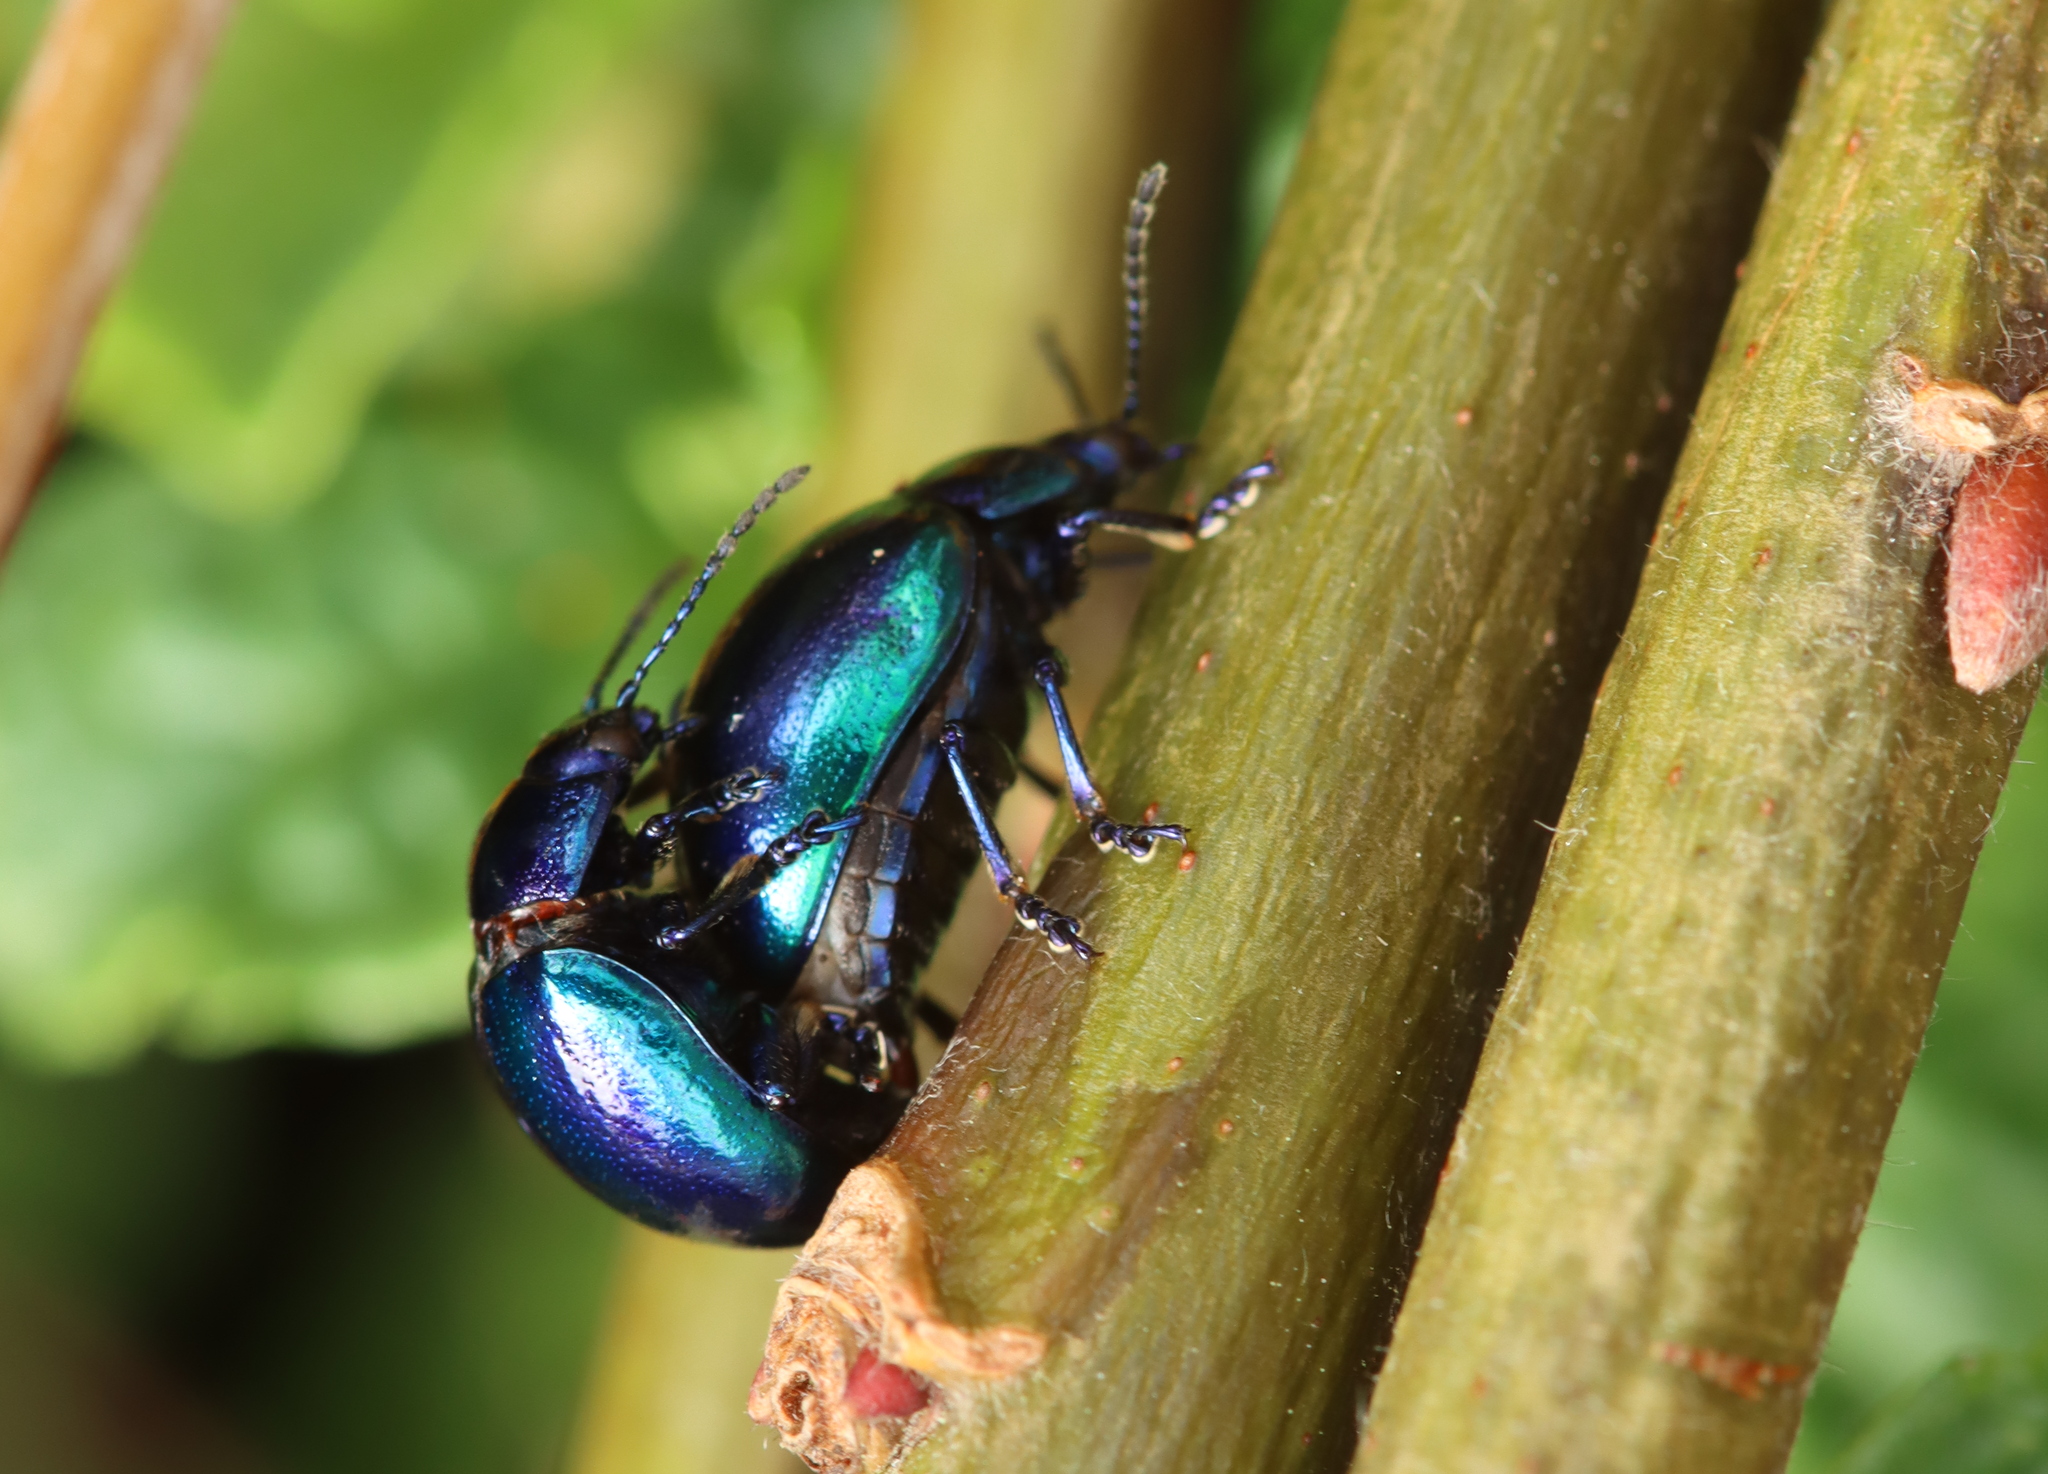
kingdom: Animalia
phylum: Arthropoda
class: Insecta
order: Coleoptera
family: Chrysomelidae
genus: Chrysolina
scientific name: Chrysolina coerulans
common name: Blue mint beetle
